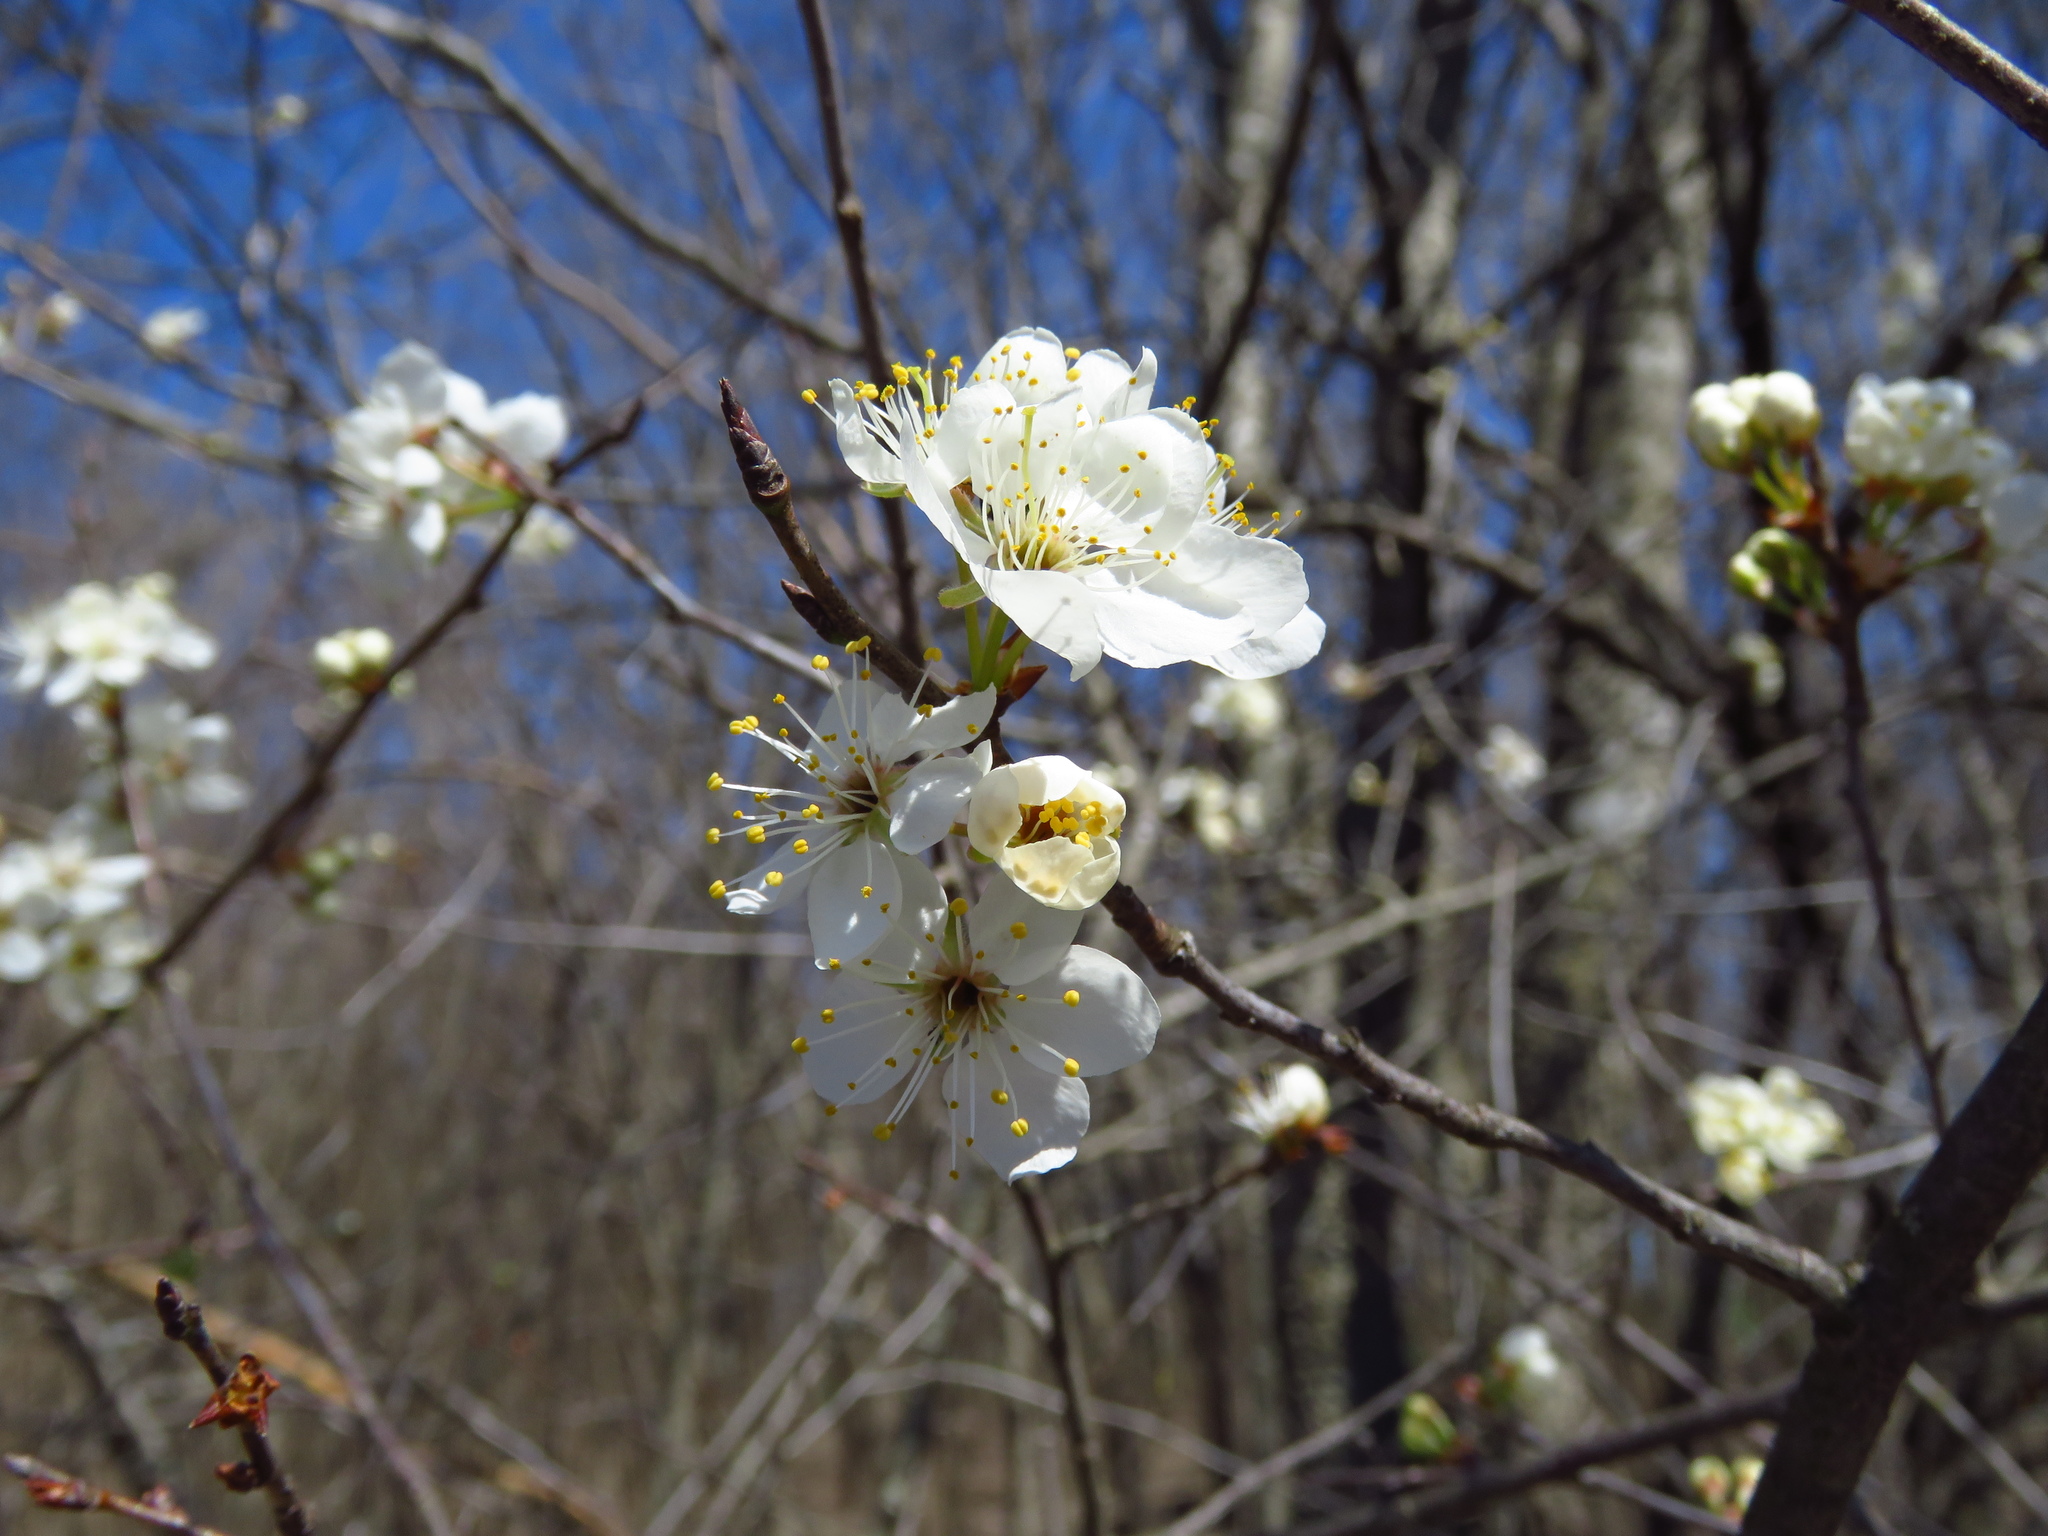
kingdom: Plantae
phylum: Tracheophyta
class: Magnoliopsida
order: Rosales
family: Rosaceae
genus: Prunus
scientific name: Prunus angustifolia
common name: Cherokee plum
